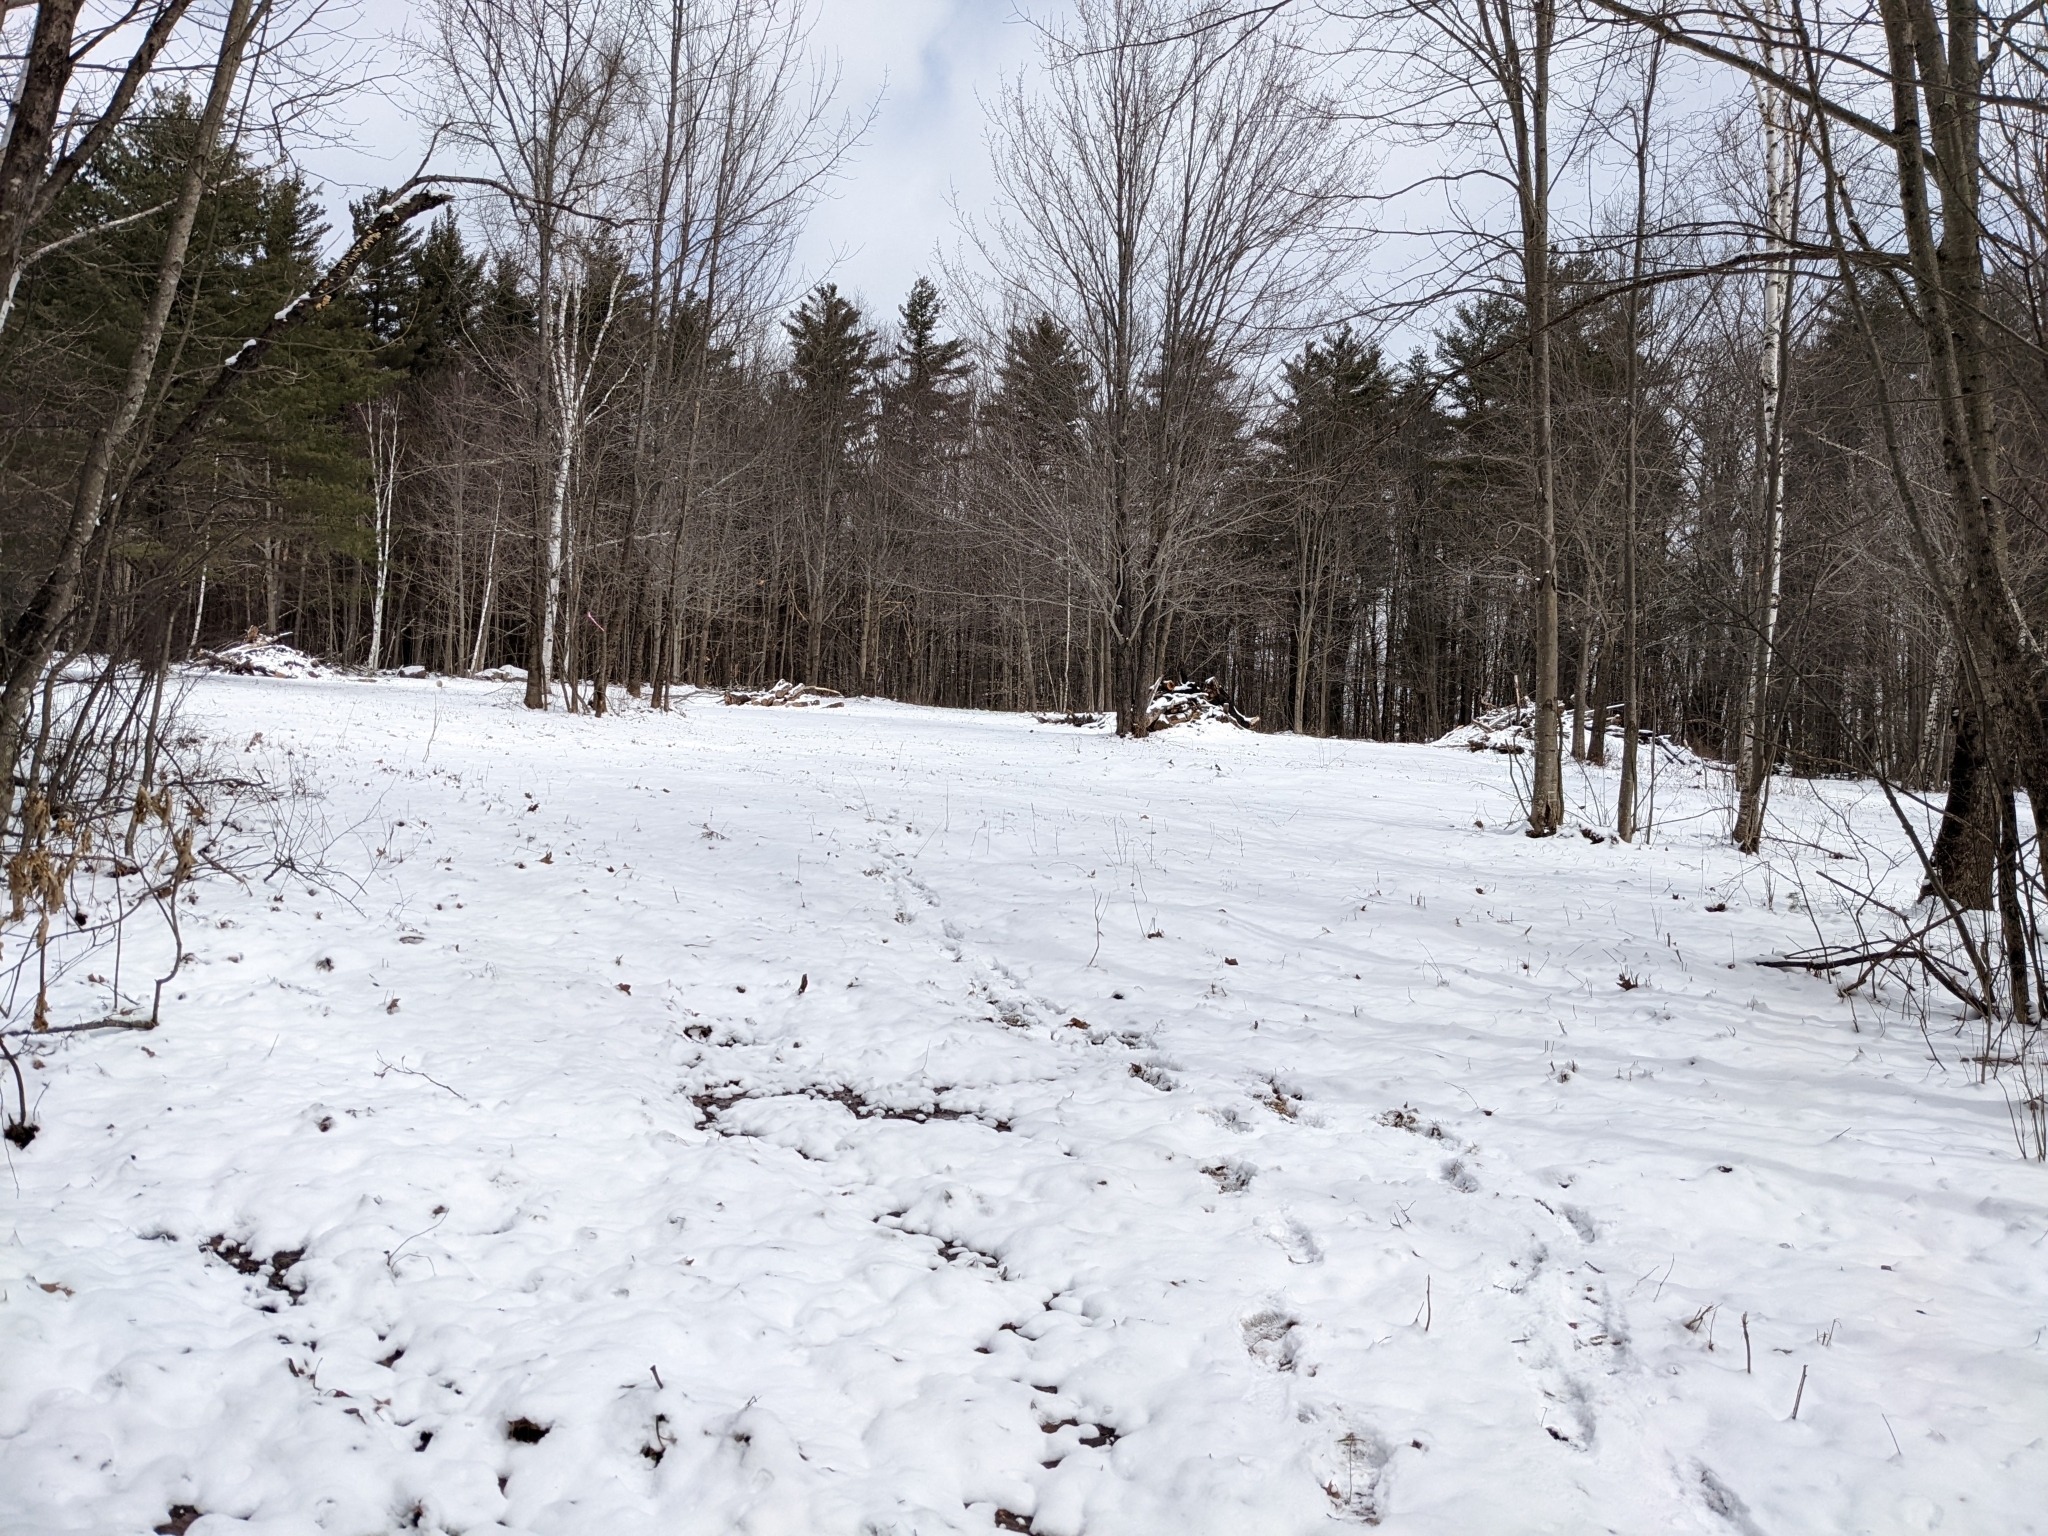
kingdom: Plantae
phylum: Tracheophyta
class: Pinopsida
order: Pinales
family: Pinaceae
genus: Pinus
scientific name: Pinus strobus
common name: Weymouth pine
